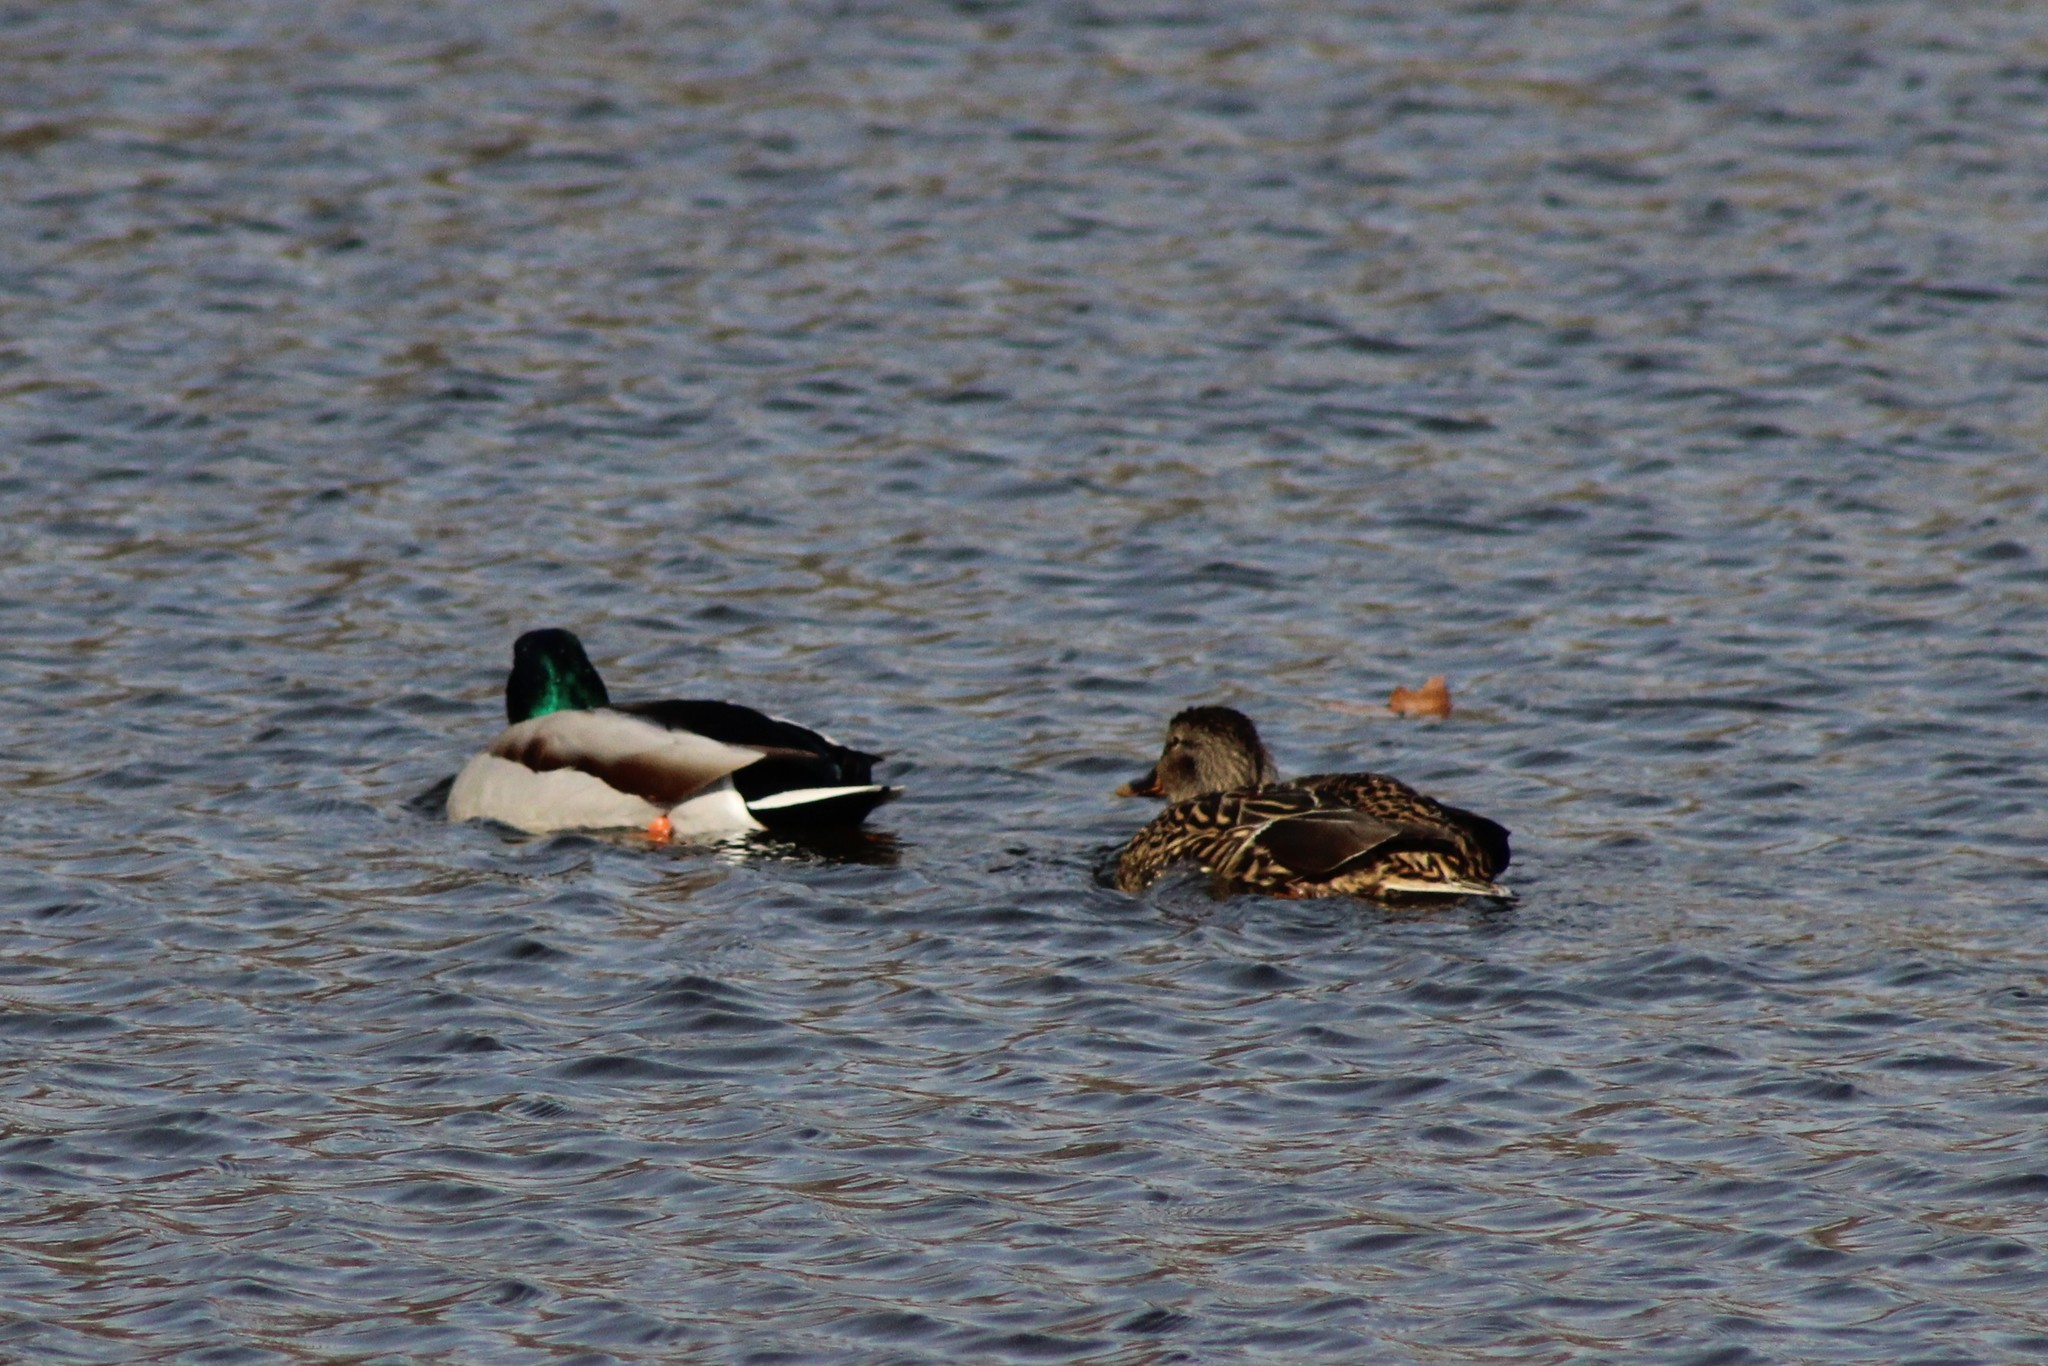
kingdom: Animalia
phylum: Chordata
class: Aves
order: Anseriformes
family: Anatidae
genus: Anas
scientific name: Anas platyrhynchos
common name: Mallard
